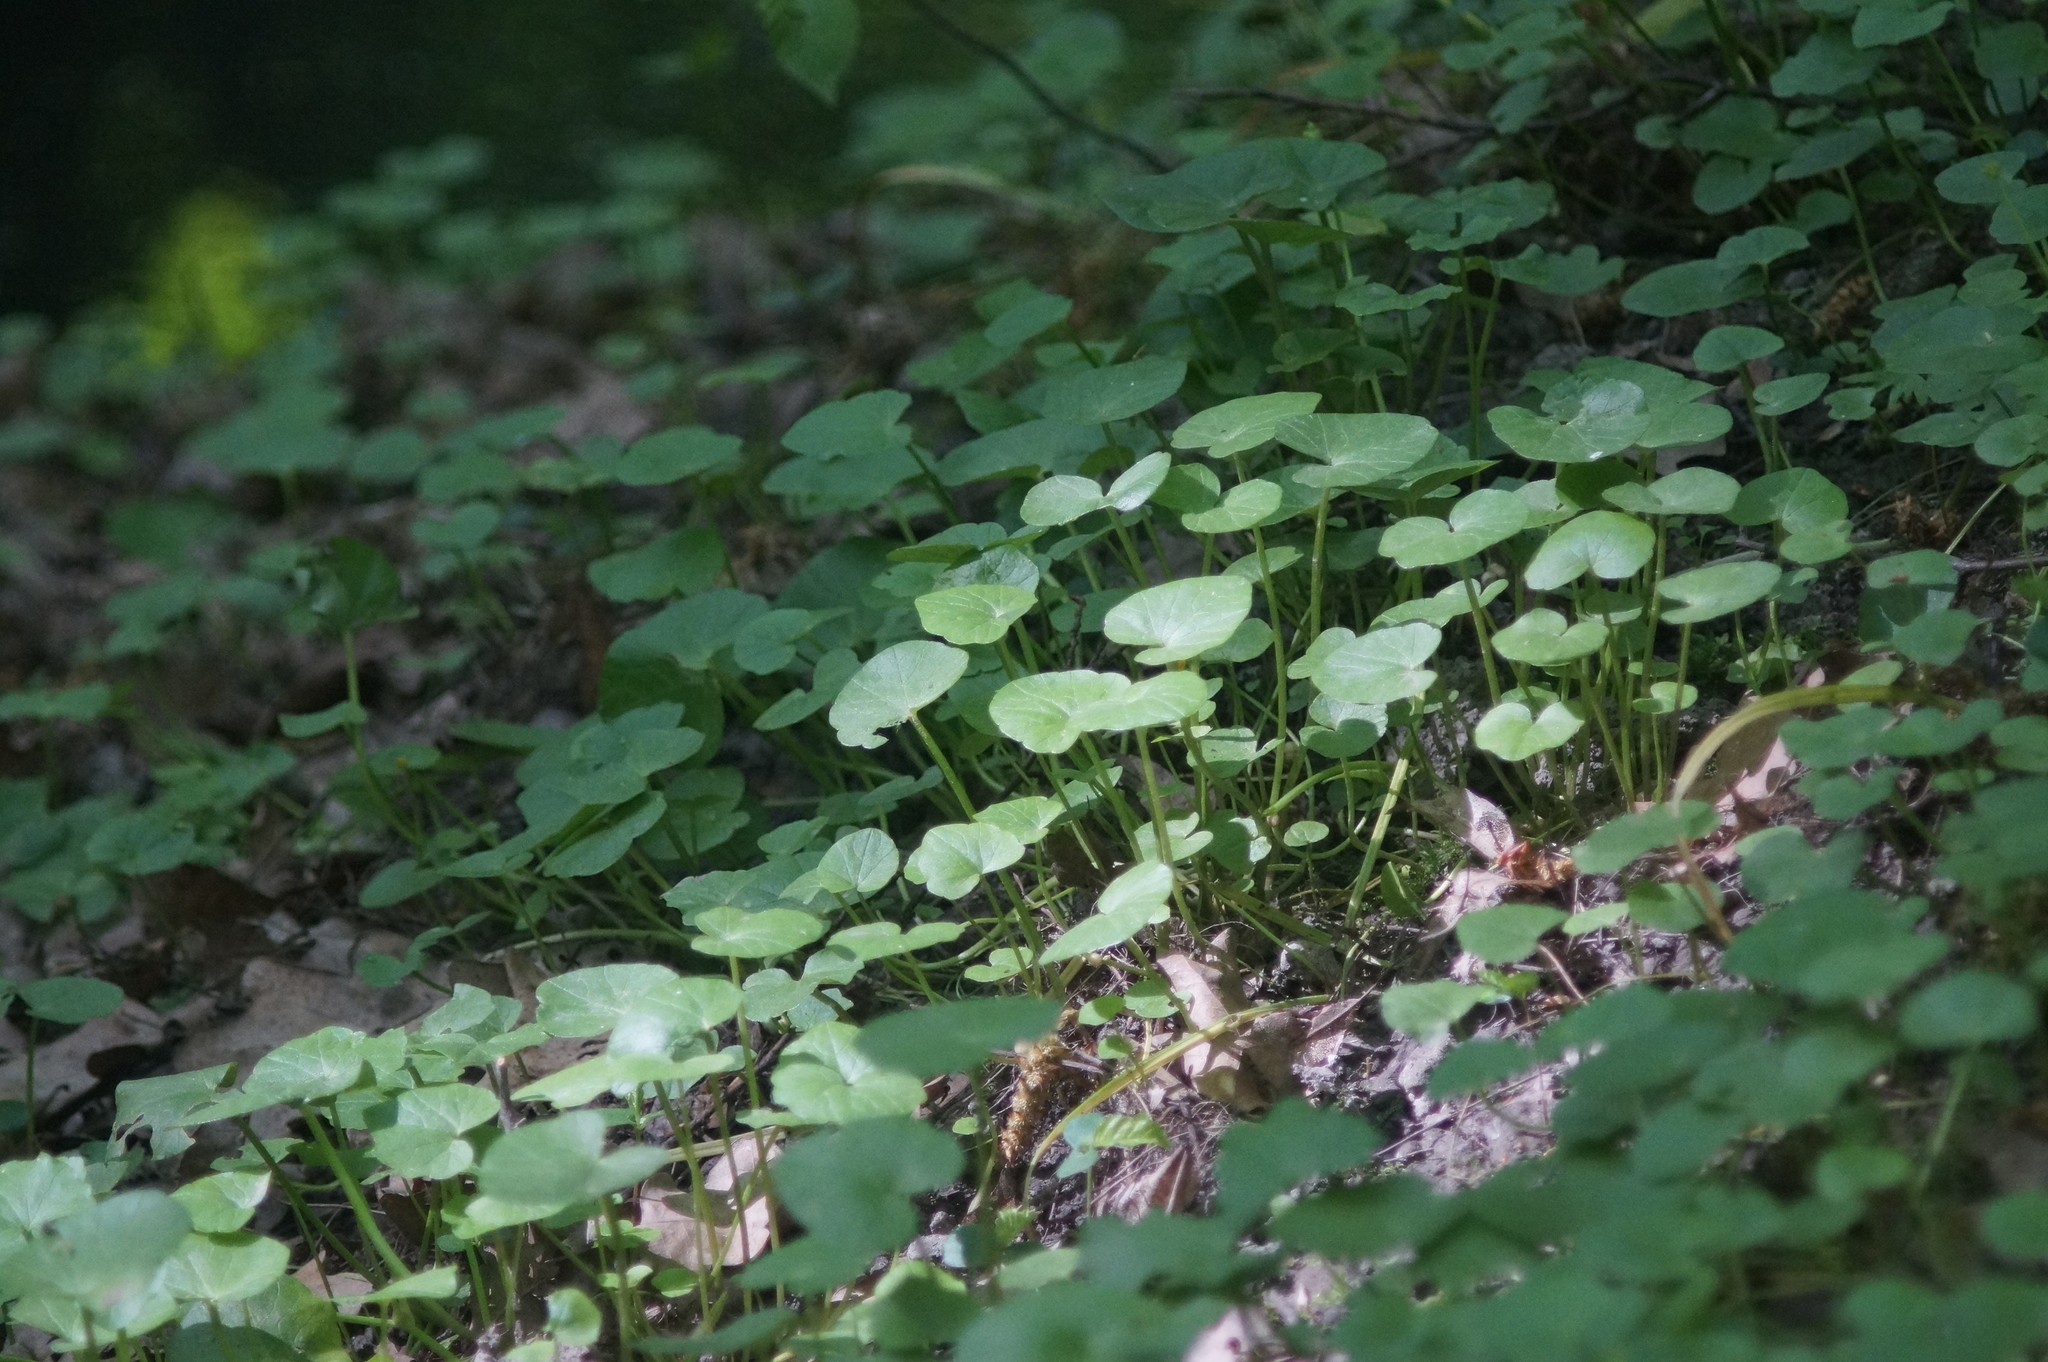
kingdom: Plantae
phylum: Tracheophyta
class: Magnoliopsida
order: Ranunculales
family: Ranunculaceae
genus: Ficaria
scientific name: Ficaria verna
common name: Lesser celandine
